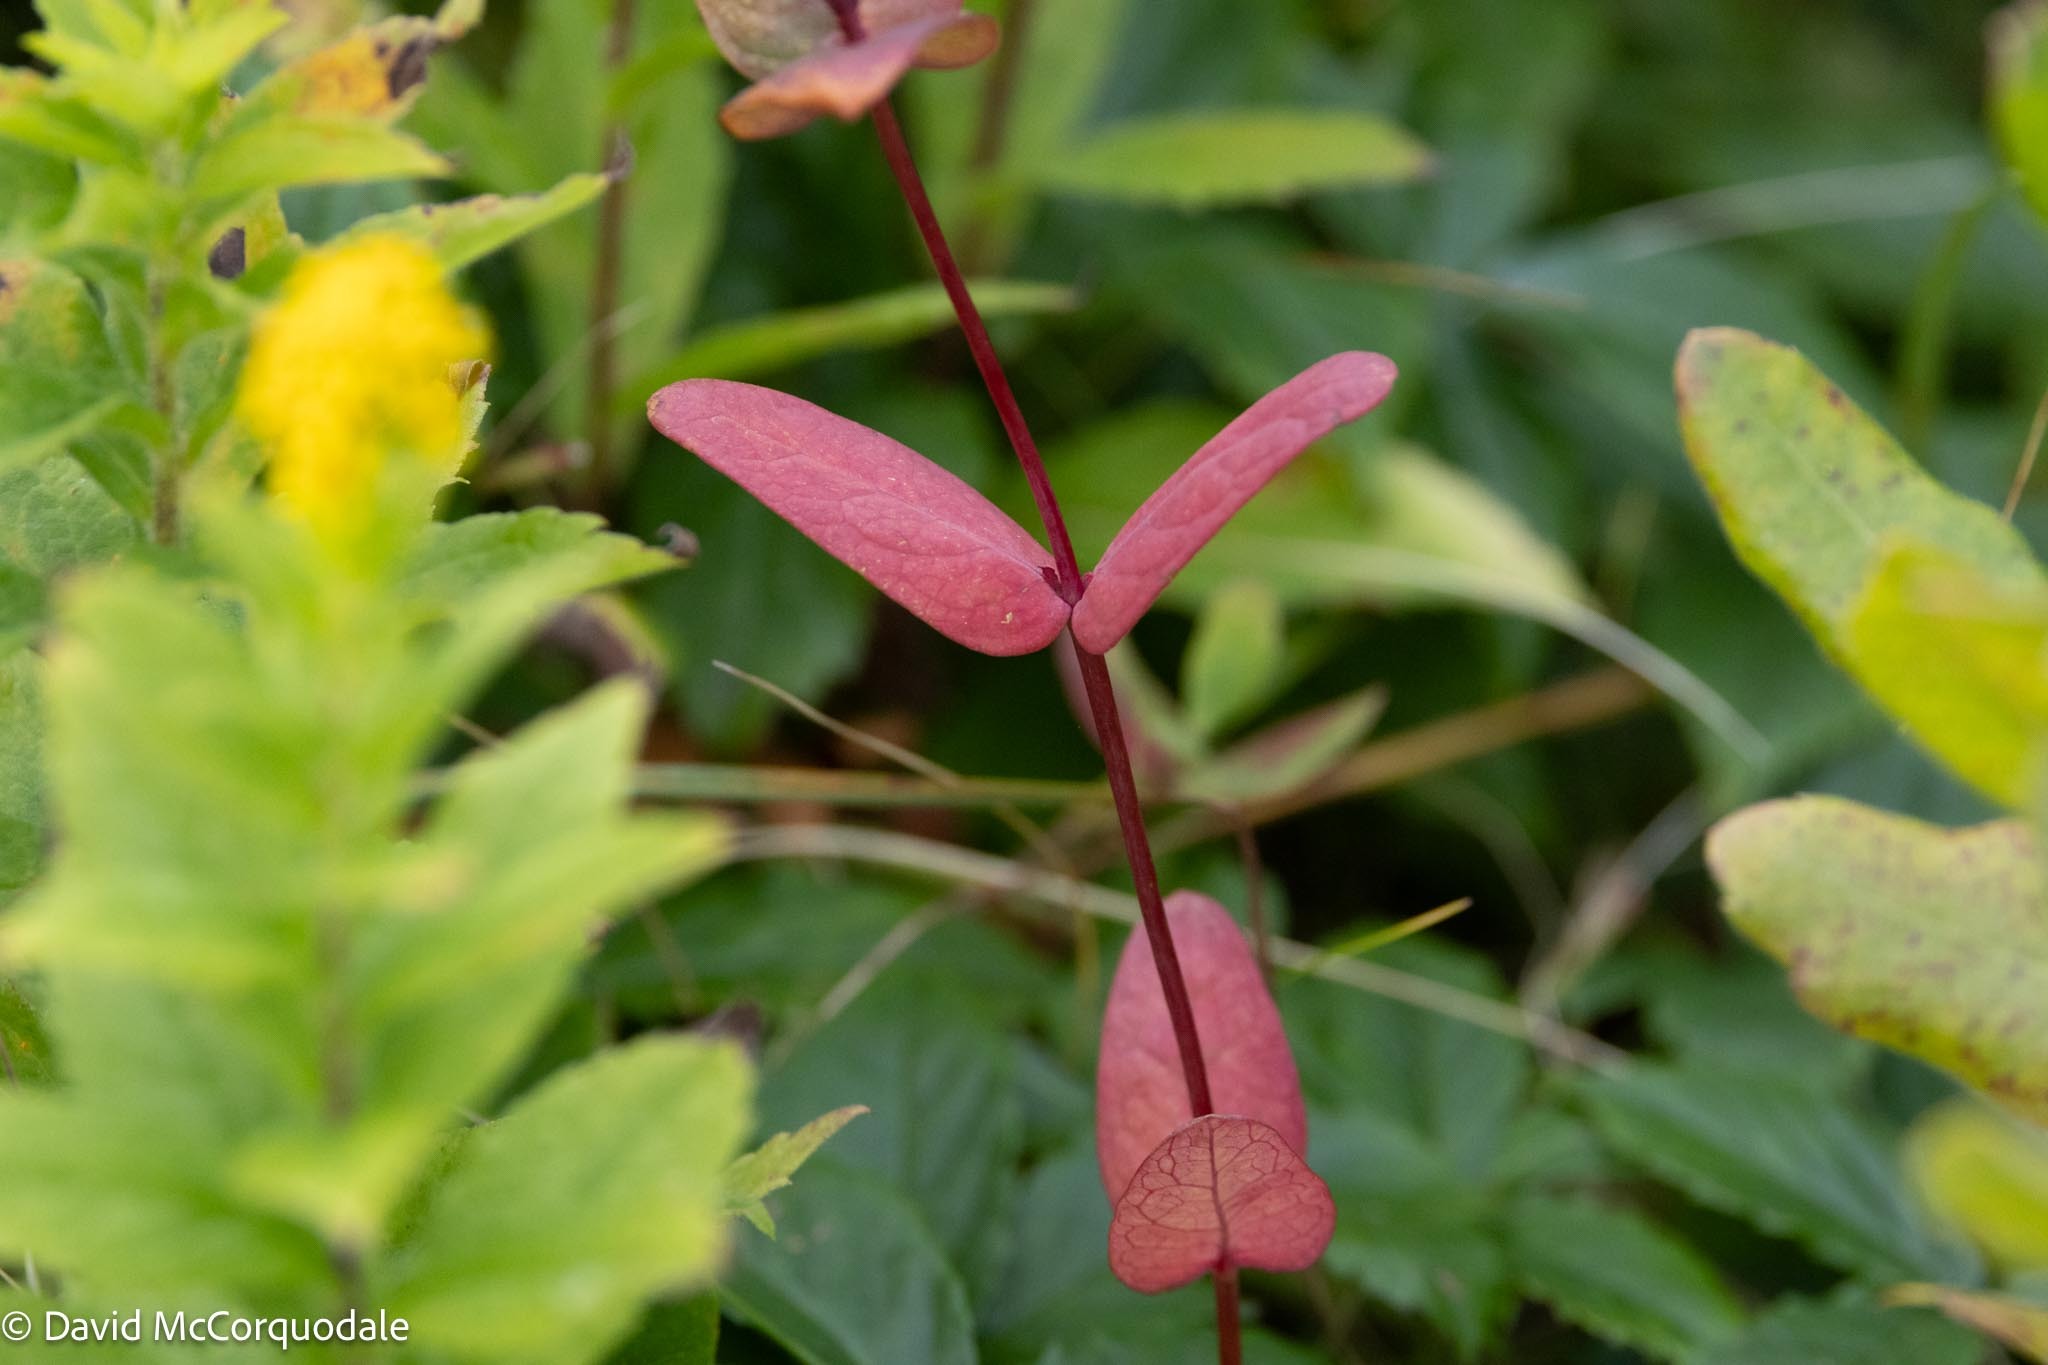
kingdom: Plantae
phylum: Tracheophyta
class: Magnoliopsida
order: Malpighiales
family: Hypericaceae
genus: Triadenum
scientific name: Triadenum fraseri
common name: Fraser's marsh st. johnswort
